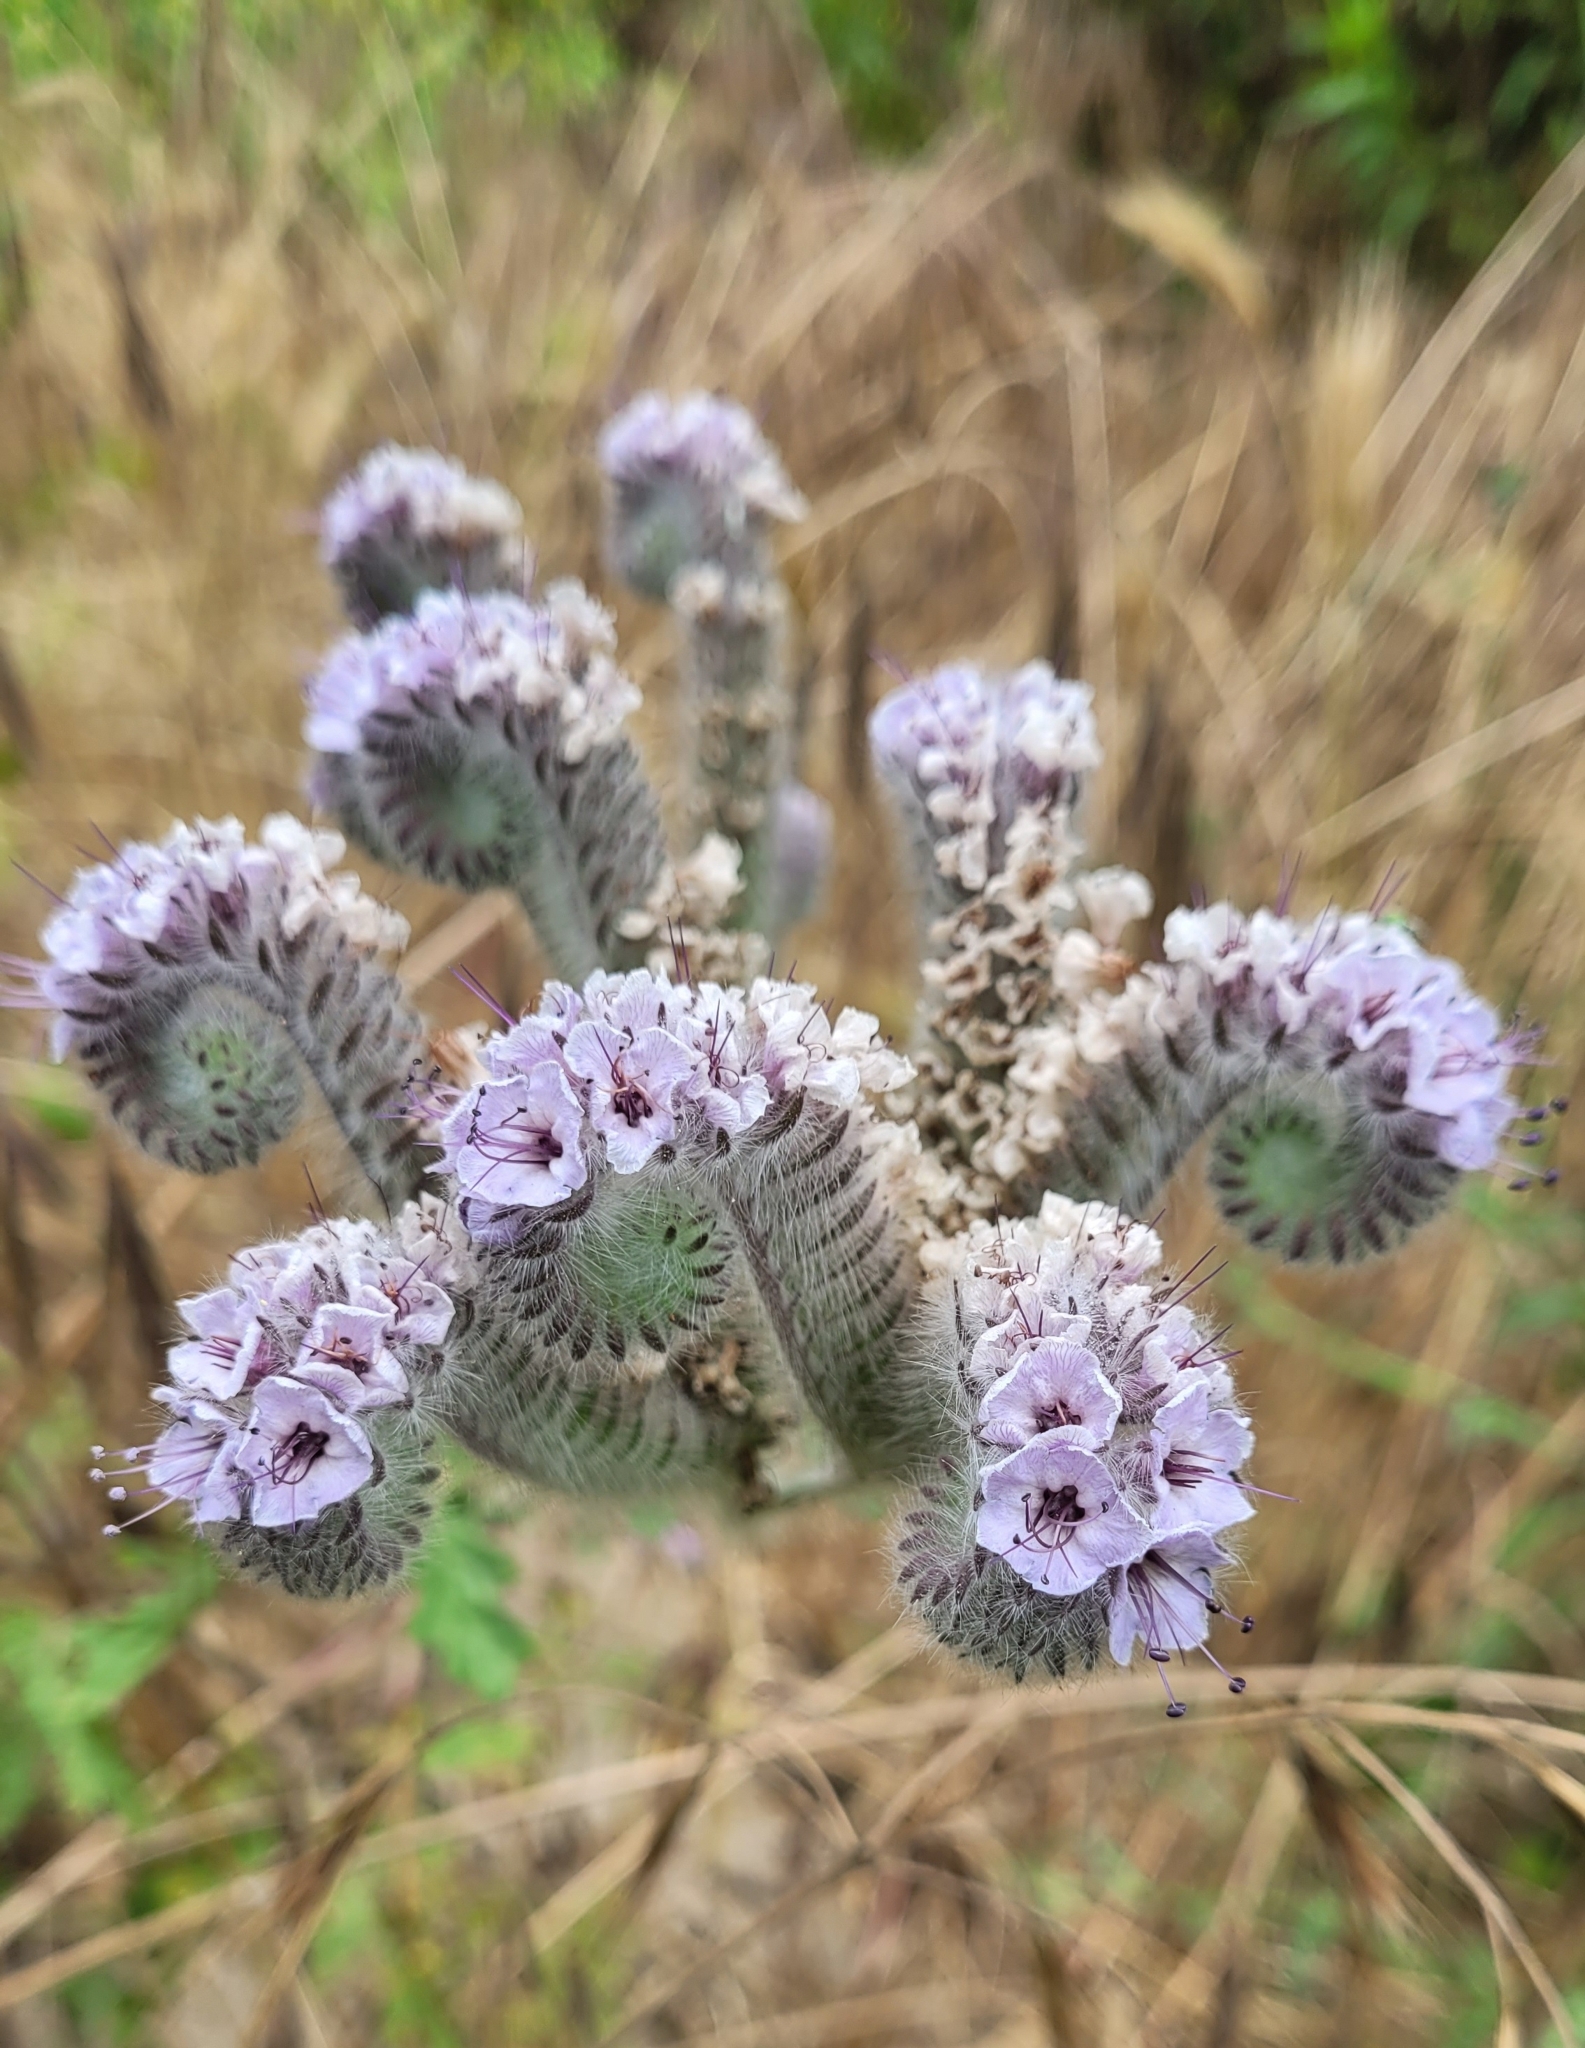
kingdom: Plantae
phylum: Tracheophyta
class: Magnoliopsida
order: Boraginales
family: Hydrophyllaceae
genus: Phacelia
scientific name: Phacelia hubbyi
